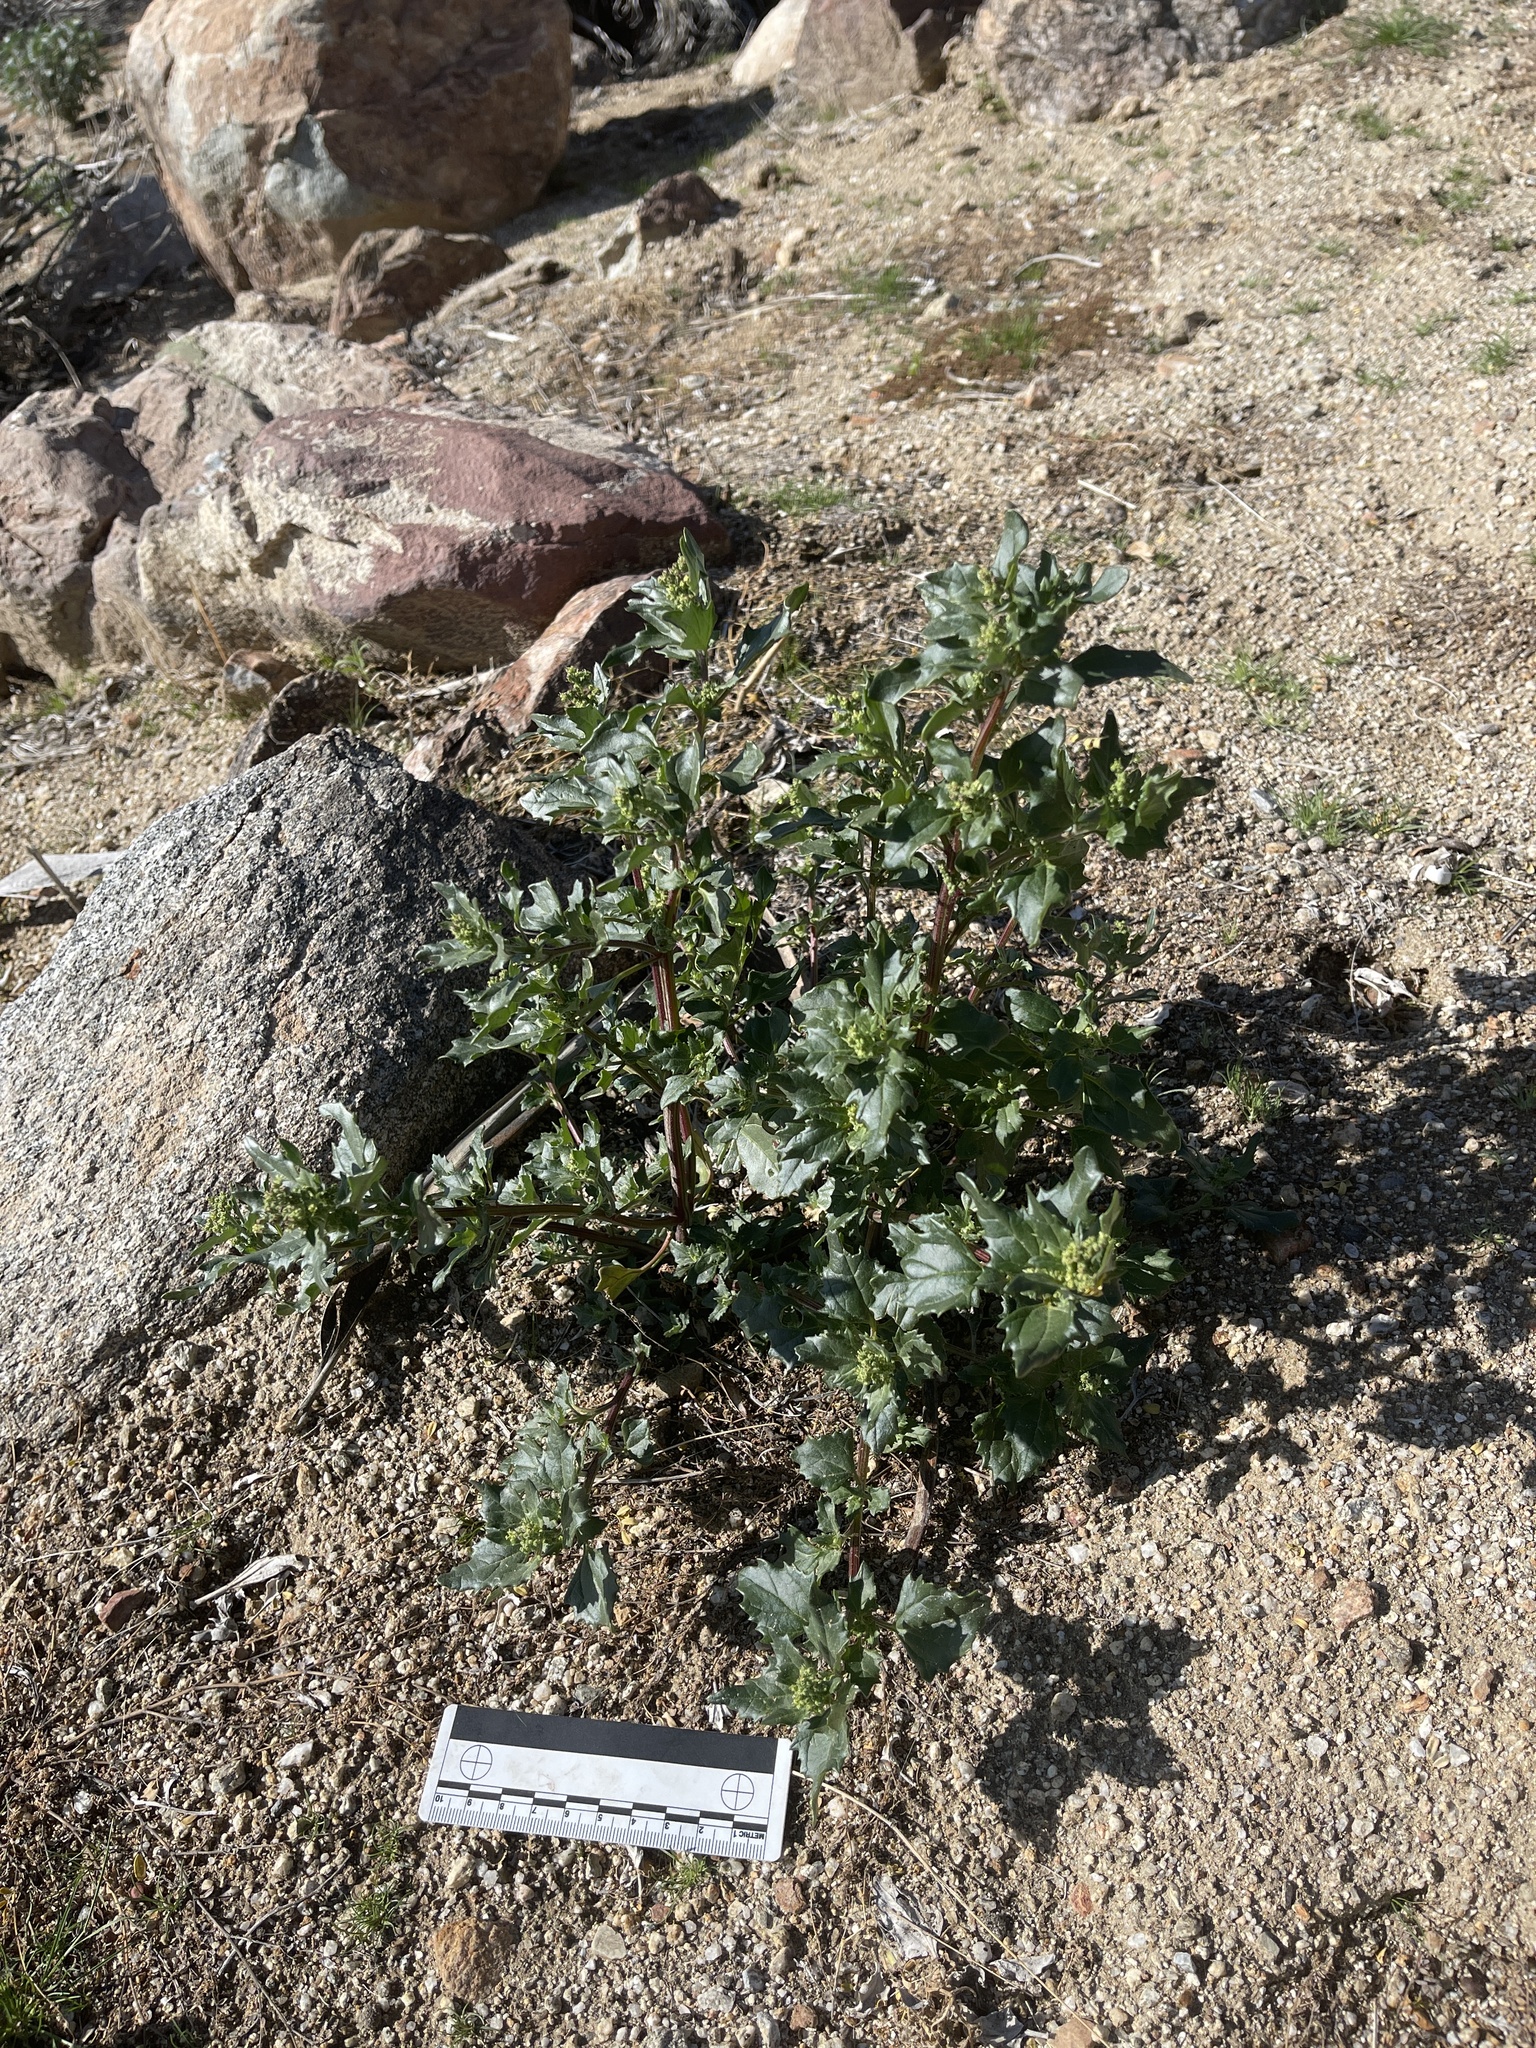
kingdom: Plantae
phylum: Tracheophyta
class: Magnoliopsida
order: Caryophyllales
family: Amaranthaceae
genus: Chenopodiastrum
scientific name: Chenopodiastrum murale
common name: Sowbane
